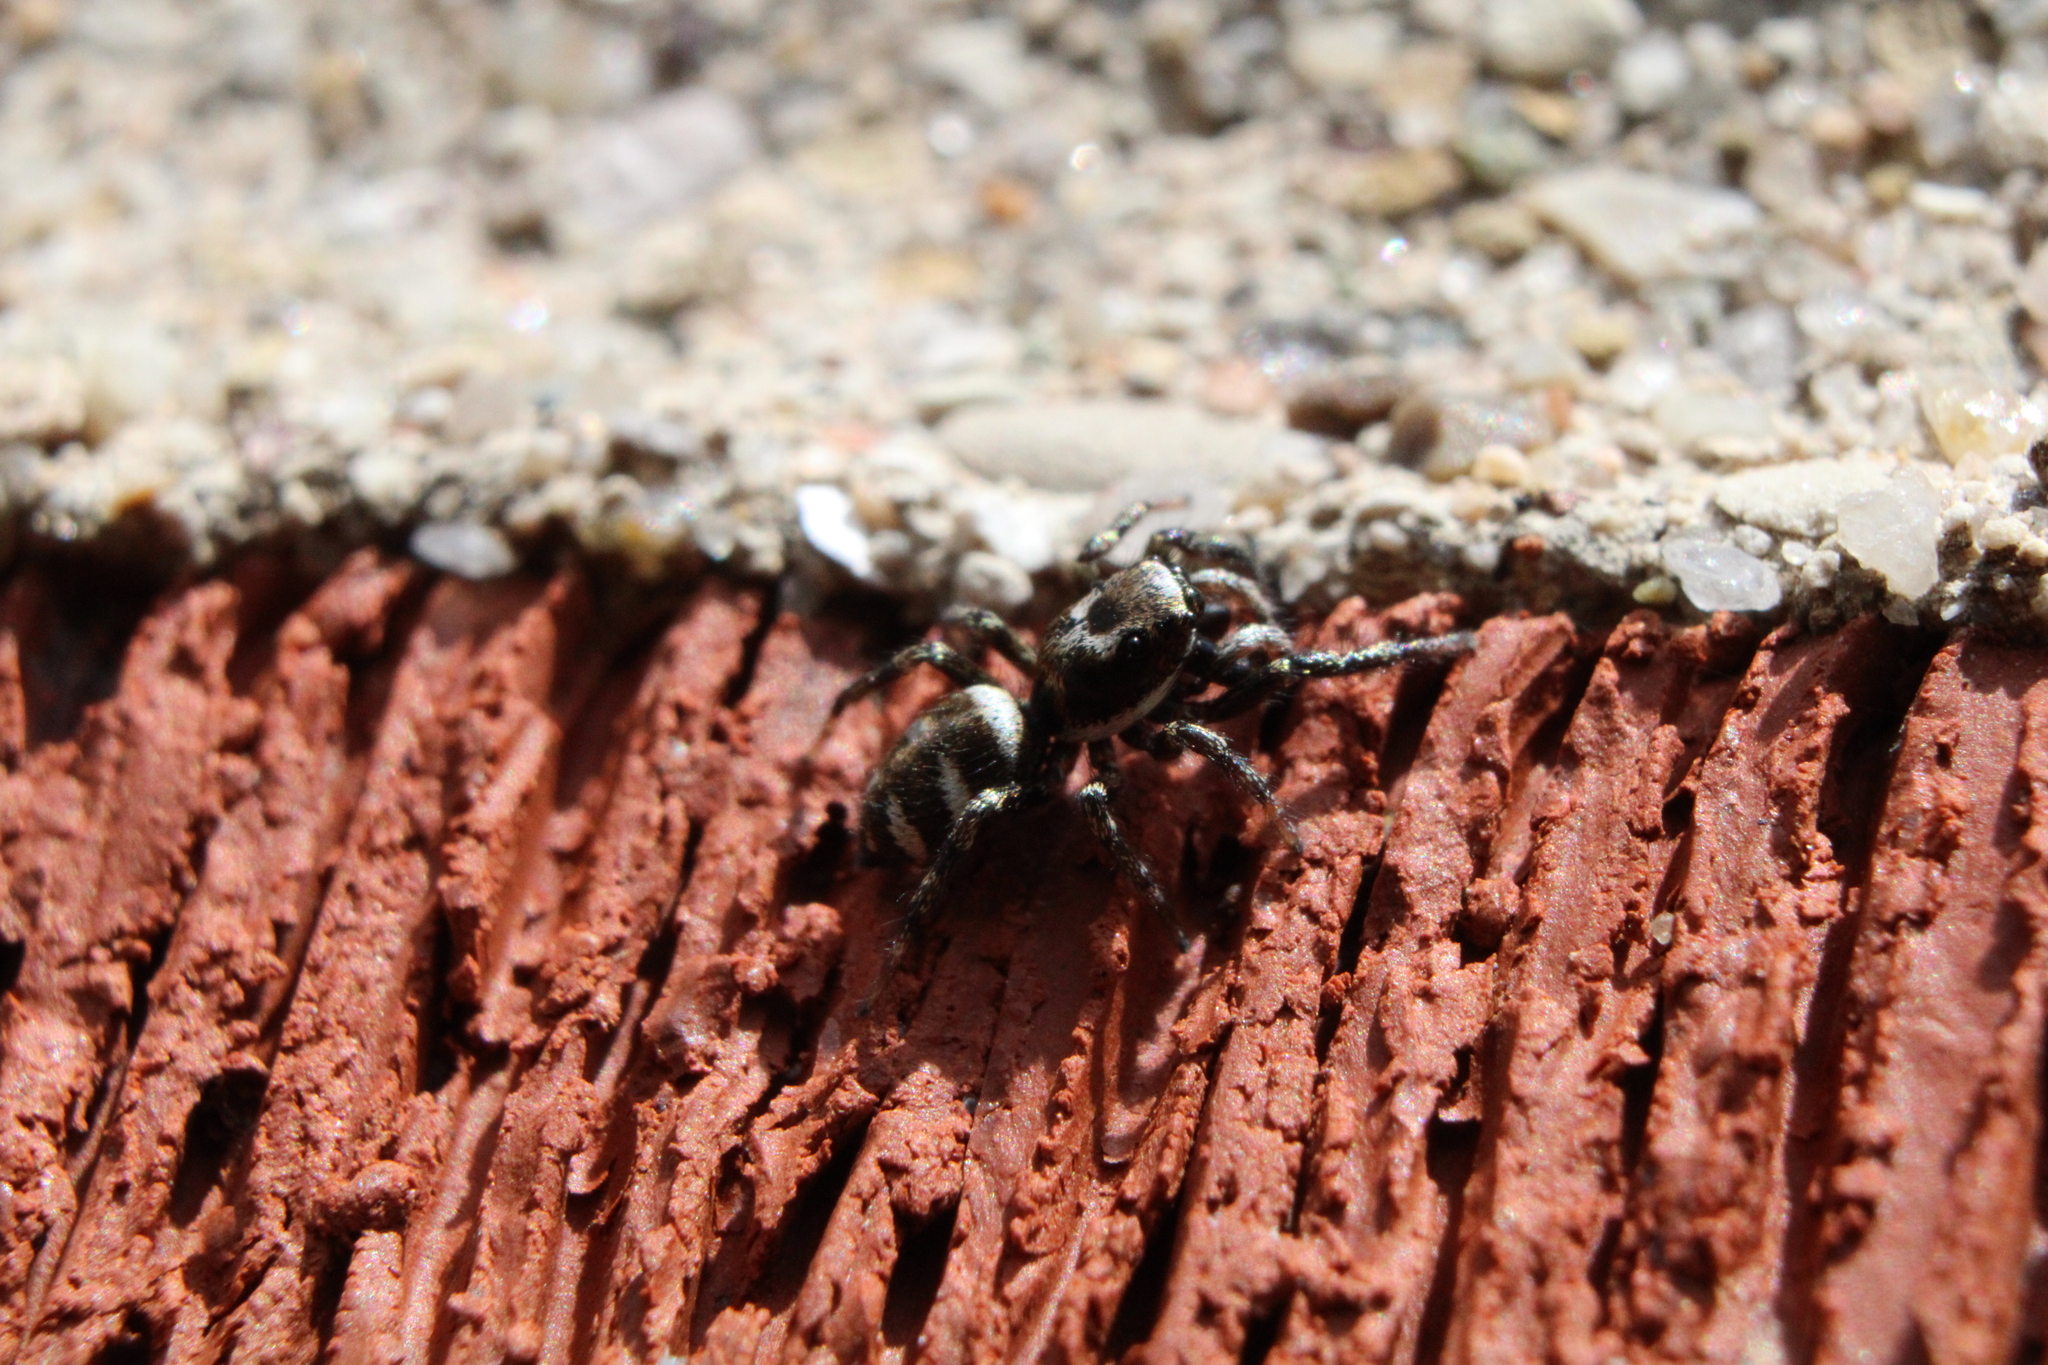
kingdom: Animalia
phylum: Arthropoda
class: Arachnida
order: Araneae
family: Salticidae
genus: Salticus
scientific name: Salticus scenicus
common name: Zebra jumper
